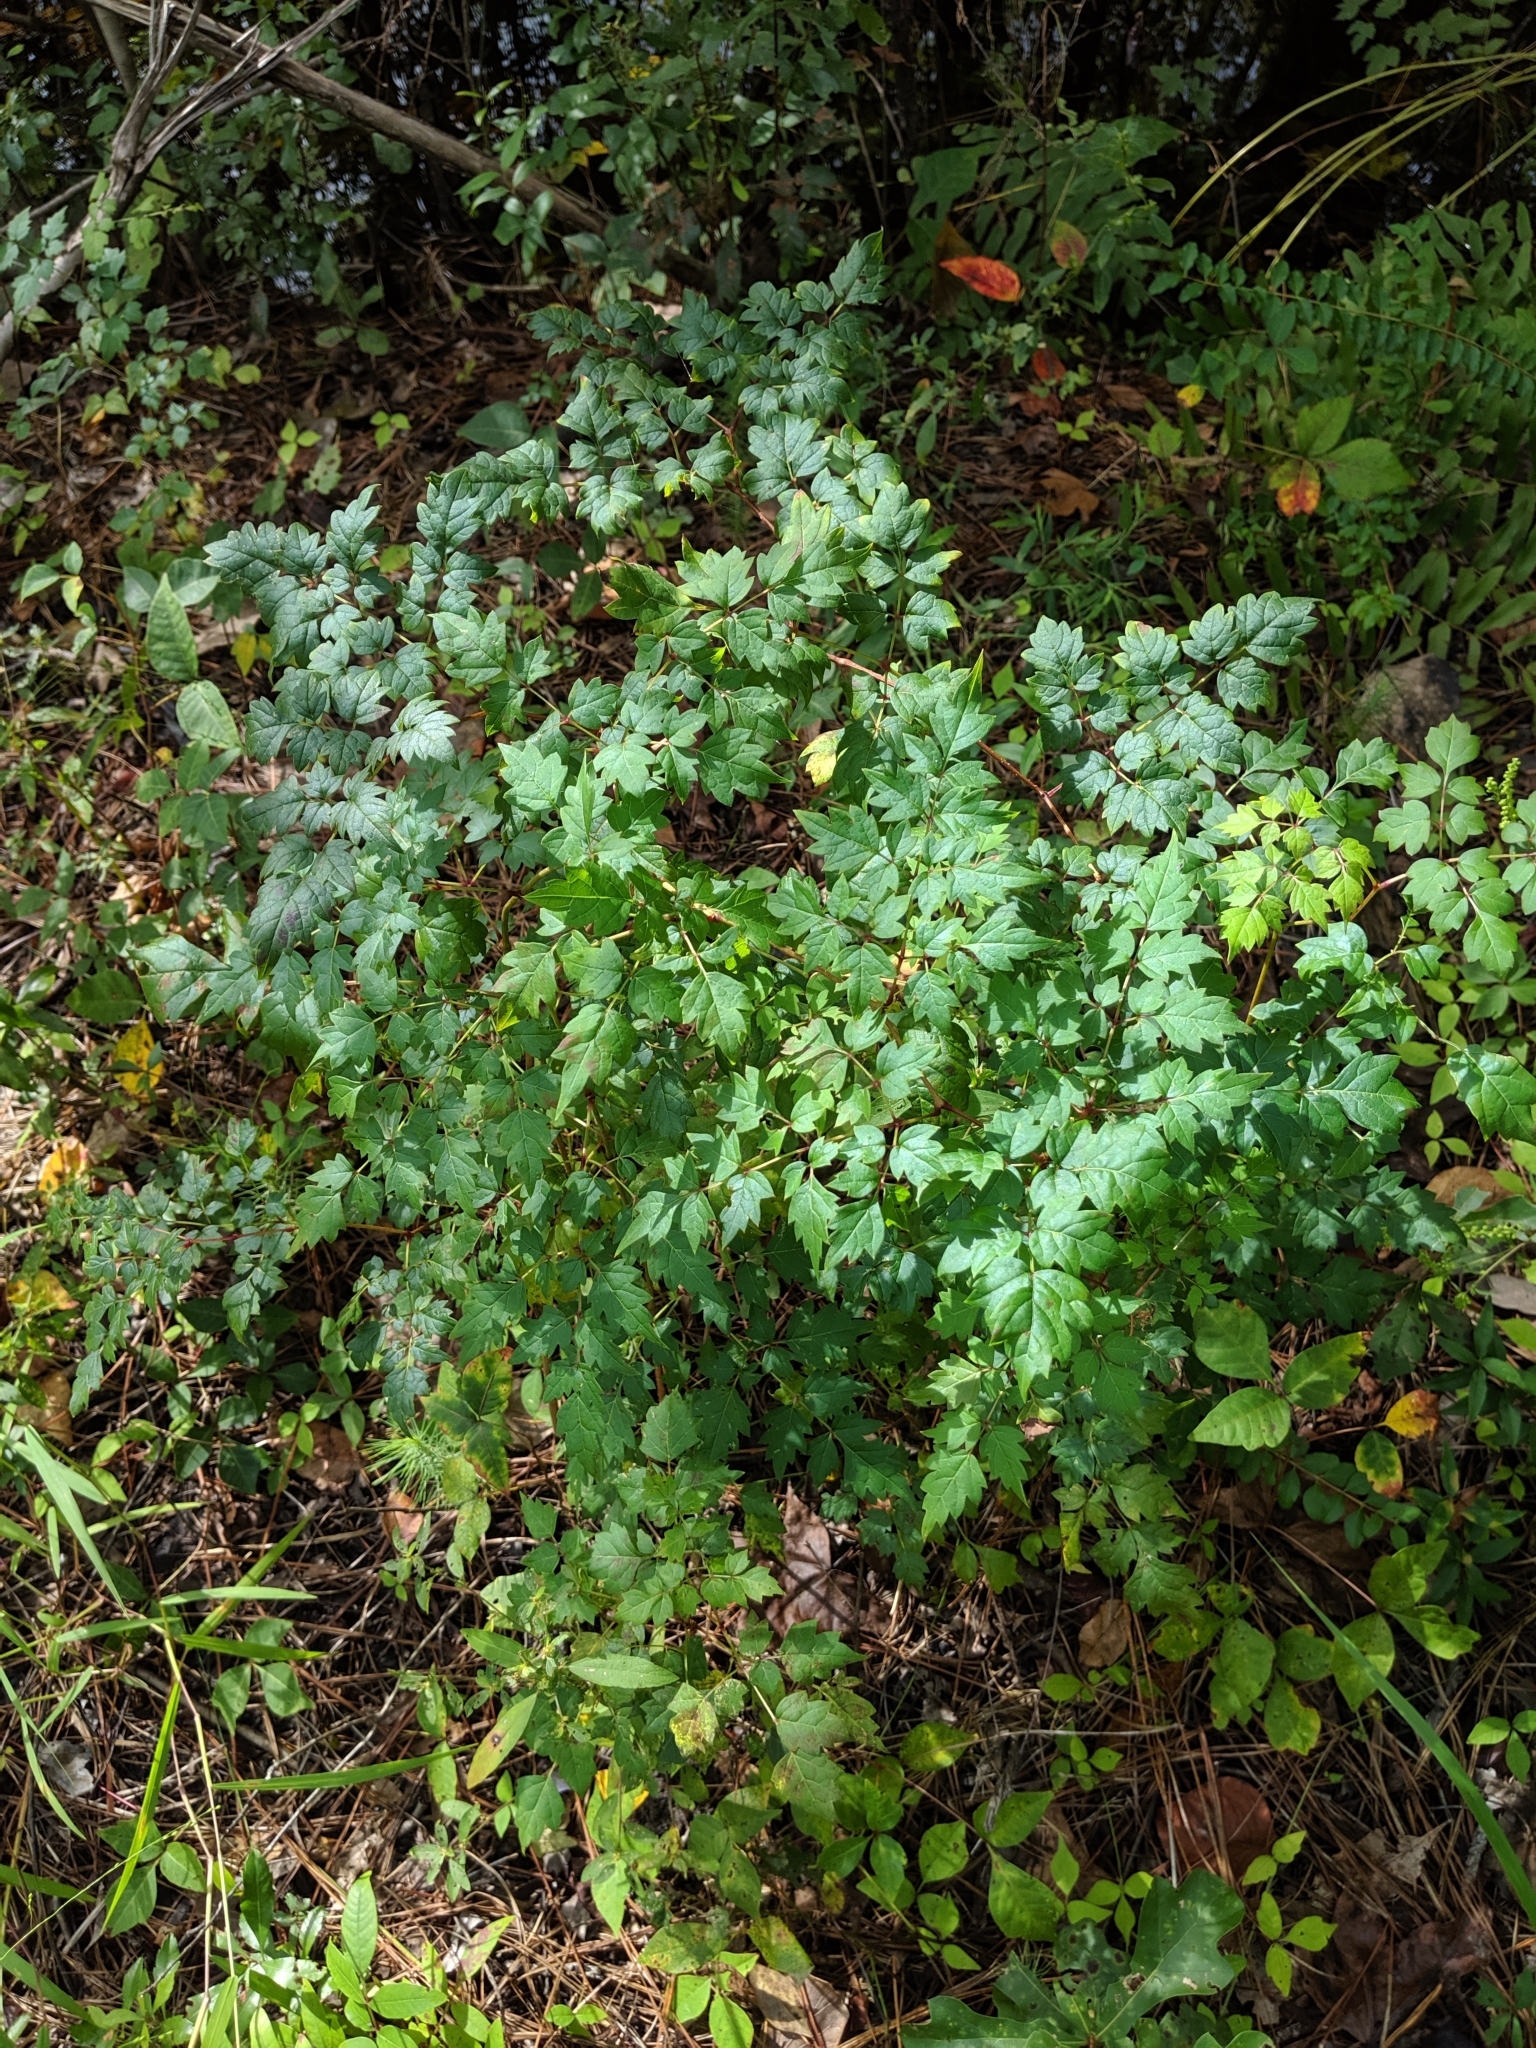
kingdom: Plantae
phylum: Tracheophyta
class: Magnoliopsida
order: Vitales
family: Vitaceae
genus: Nekemias
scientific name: Nekemias arborea
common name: Peppervine
